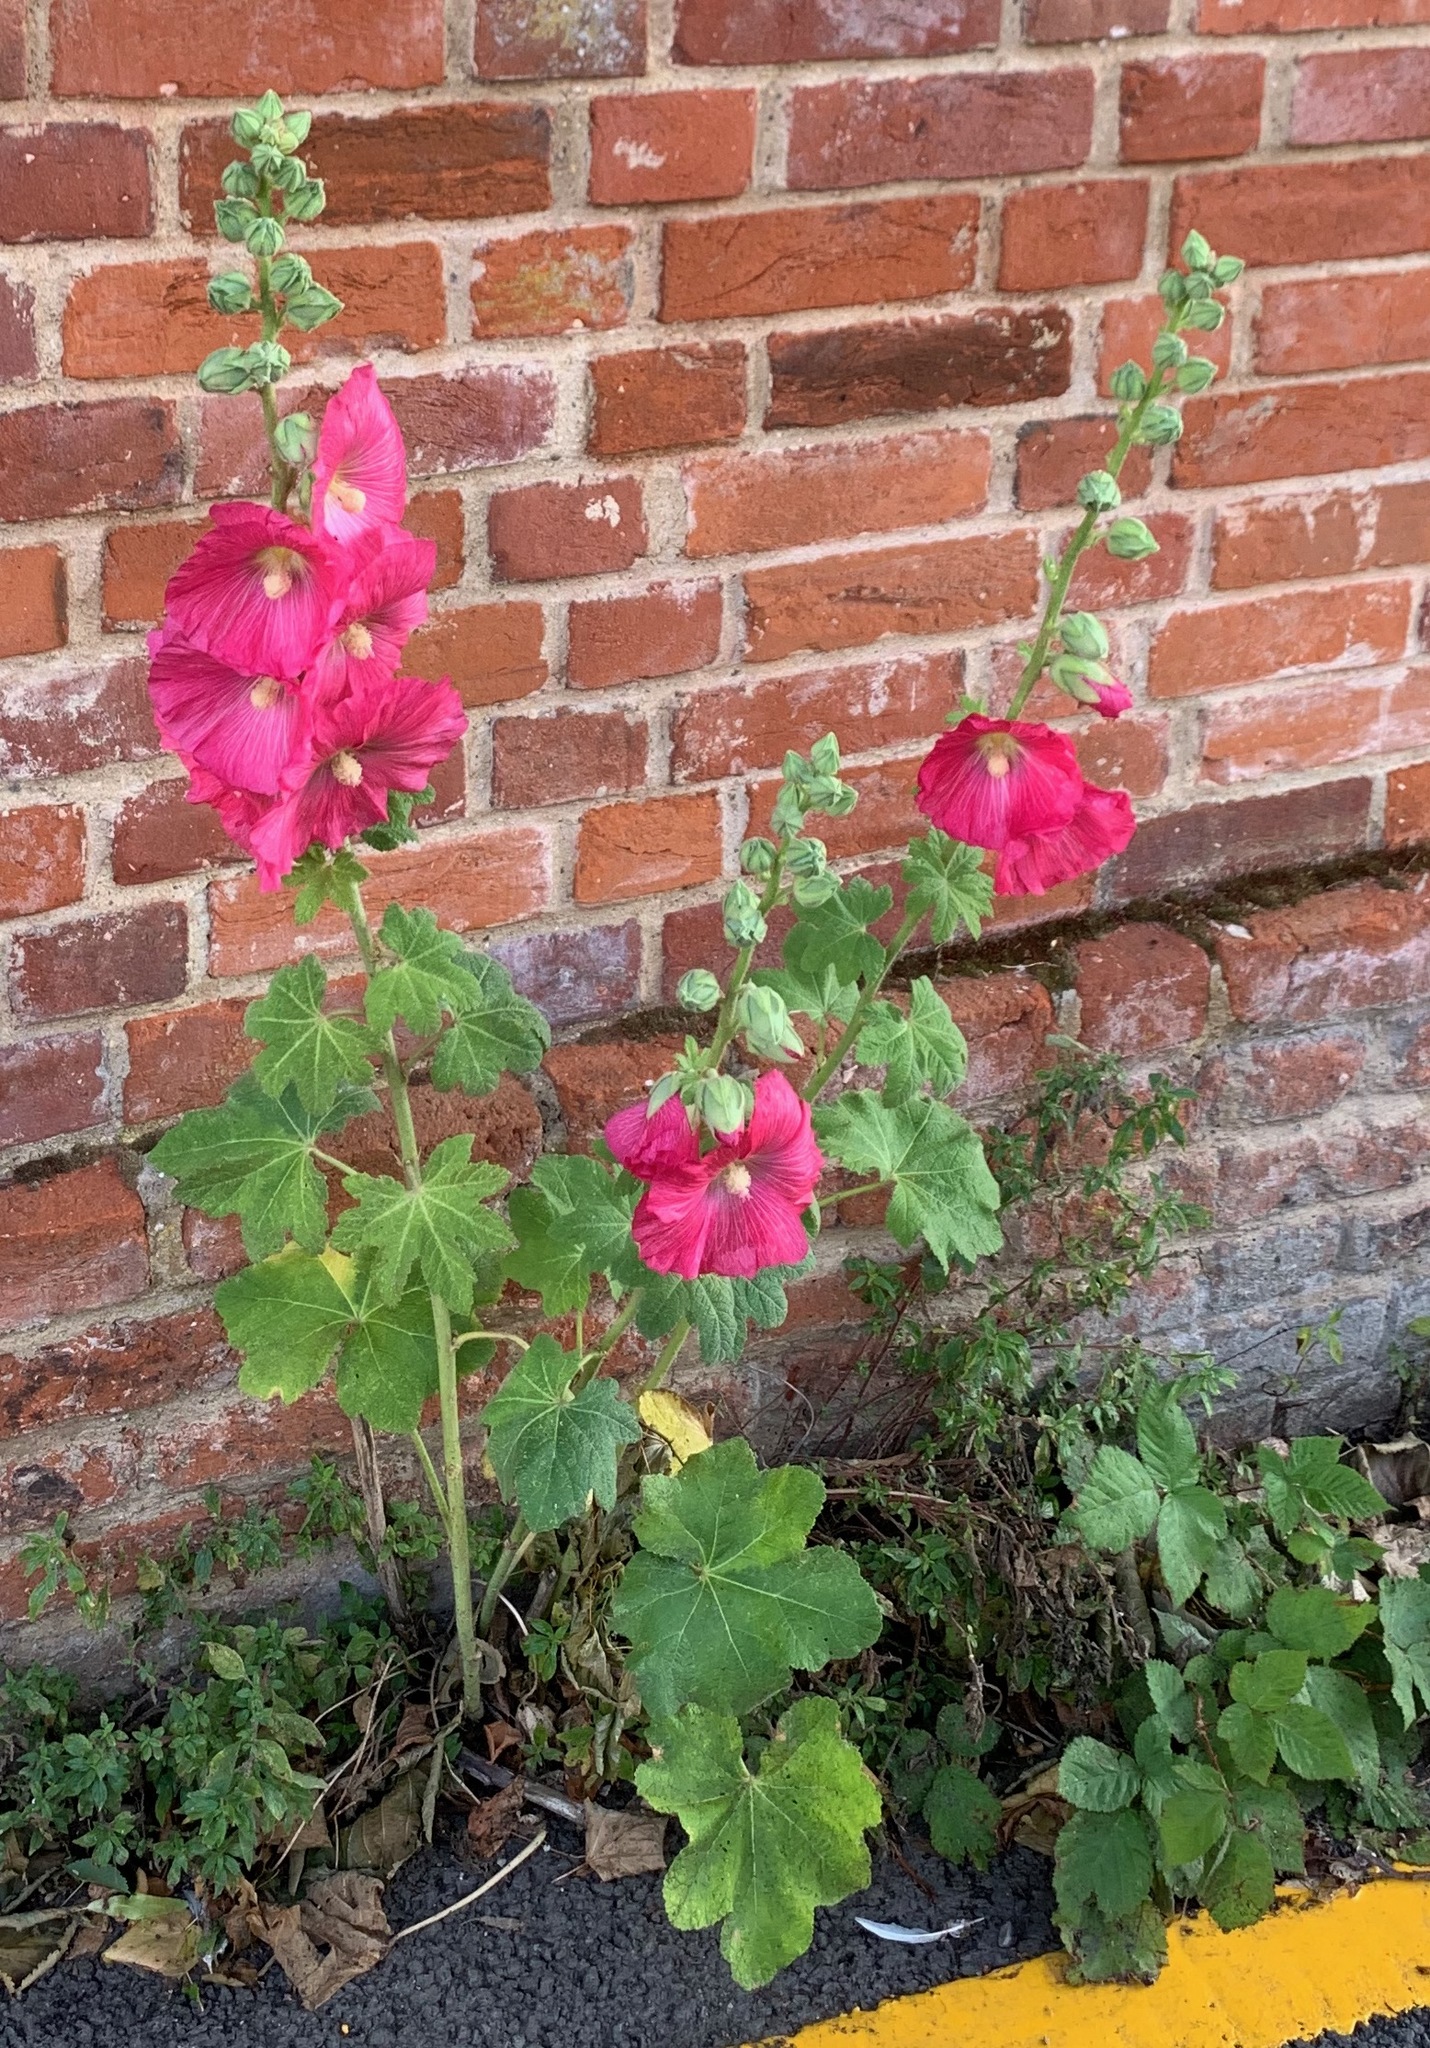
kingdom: Plantae
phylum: Tracheophyta
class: Magnoliopsida
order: Malvales
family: Malvaceae
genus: Alcea
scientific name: Alcea rosea
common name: Hollyhock
